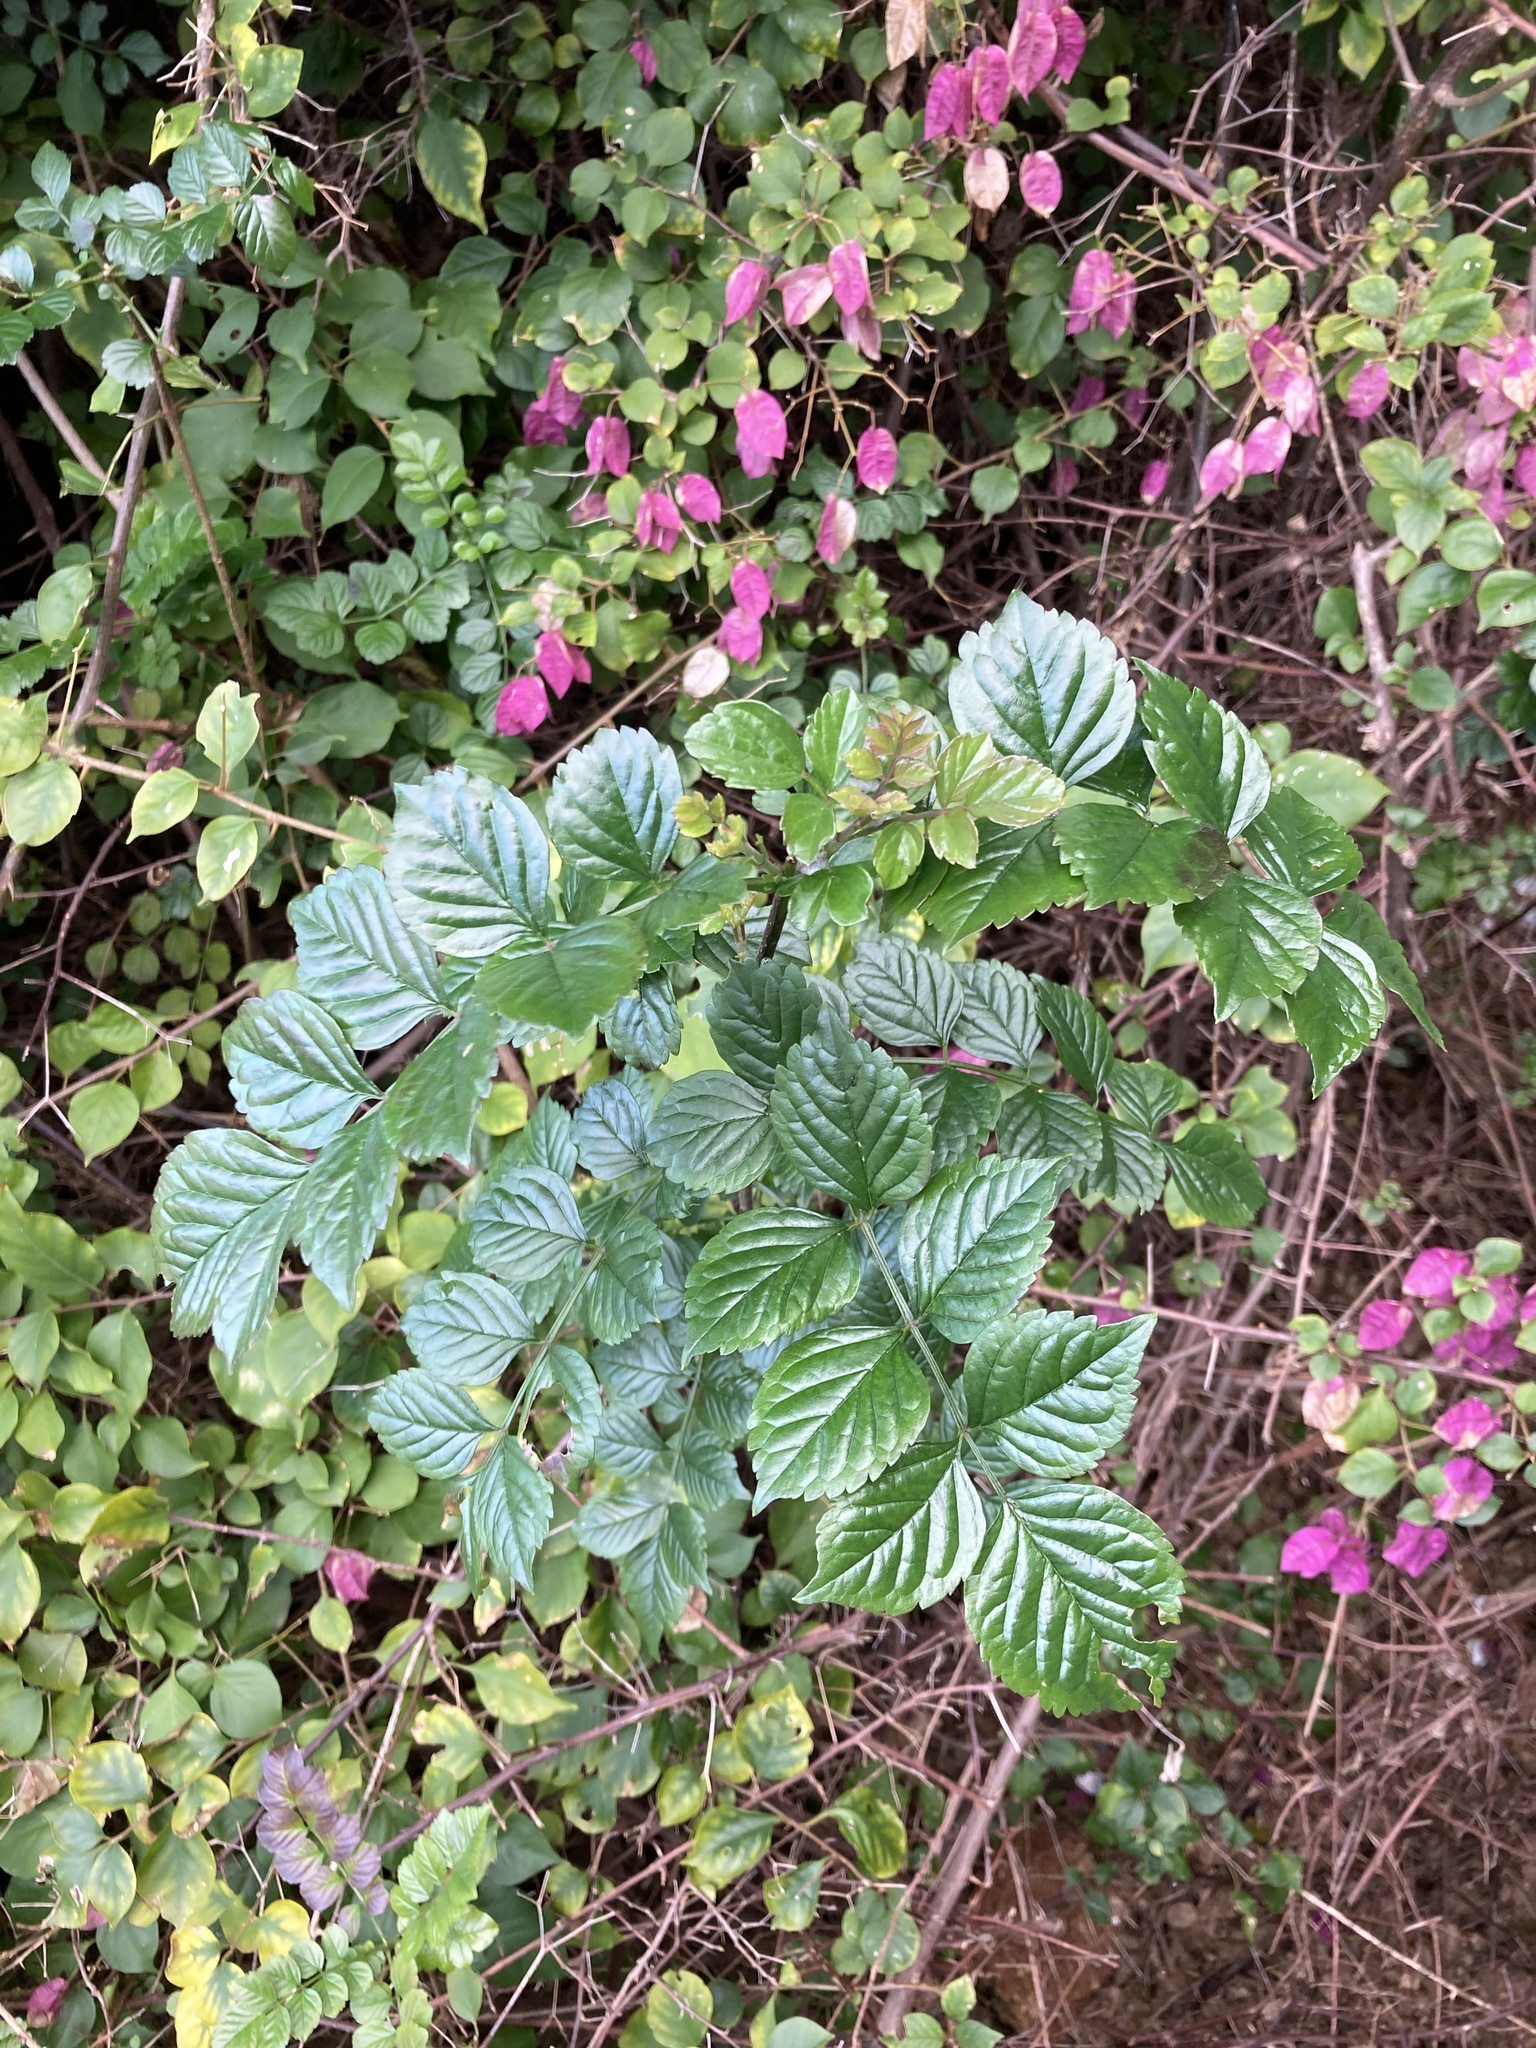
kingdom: Plantae
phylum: Tracheophyta
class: Magnoliopsida
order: Lamiales
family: Bignoniaceae
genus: Tecomaria
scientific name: Tecomaria capensis
